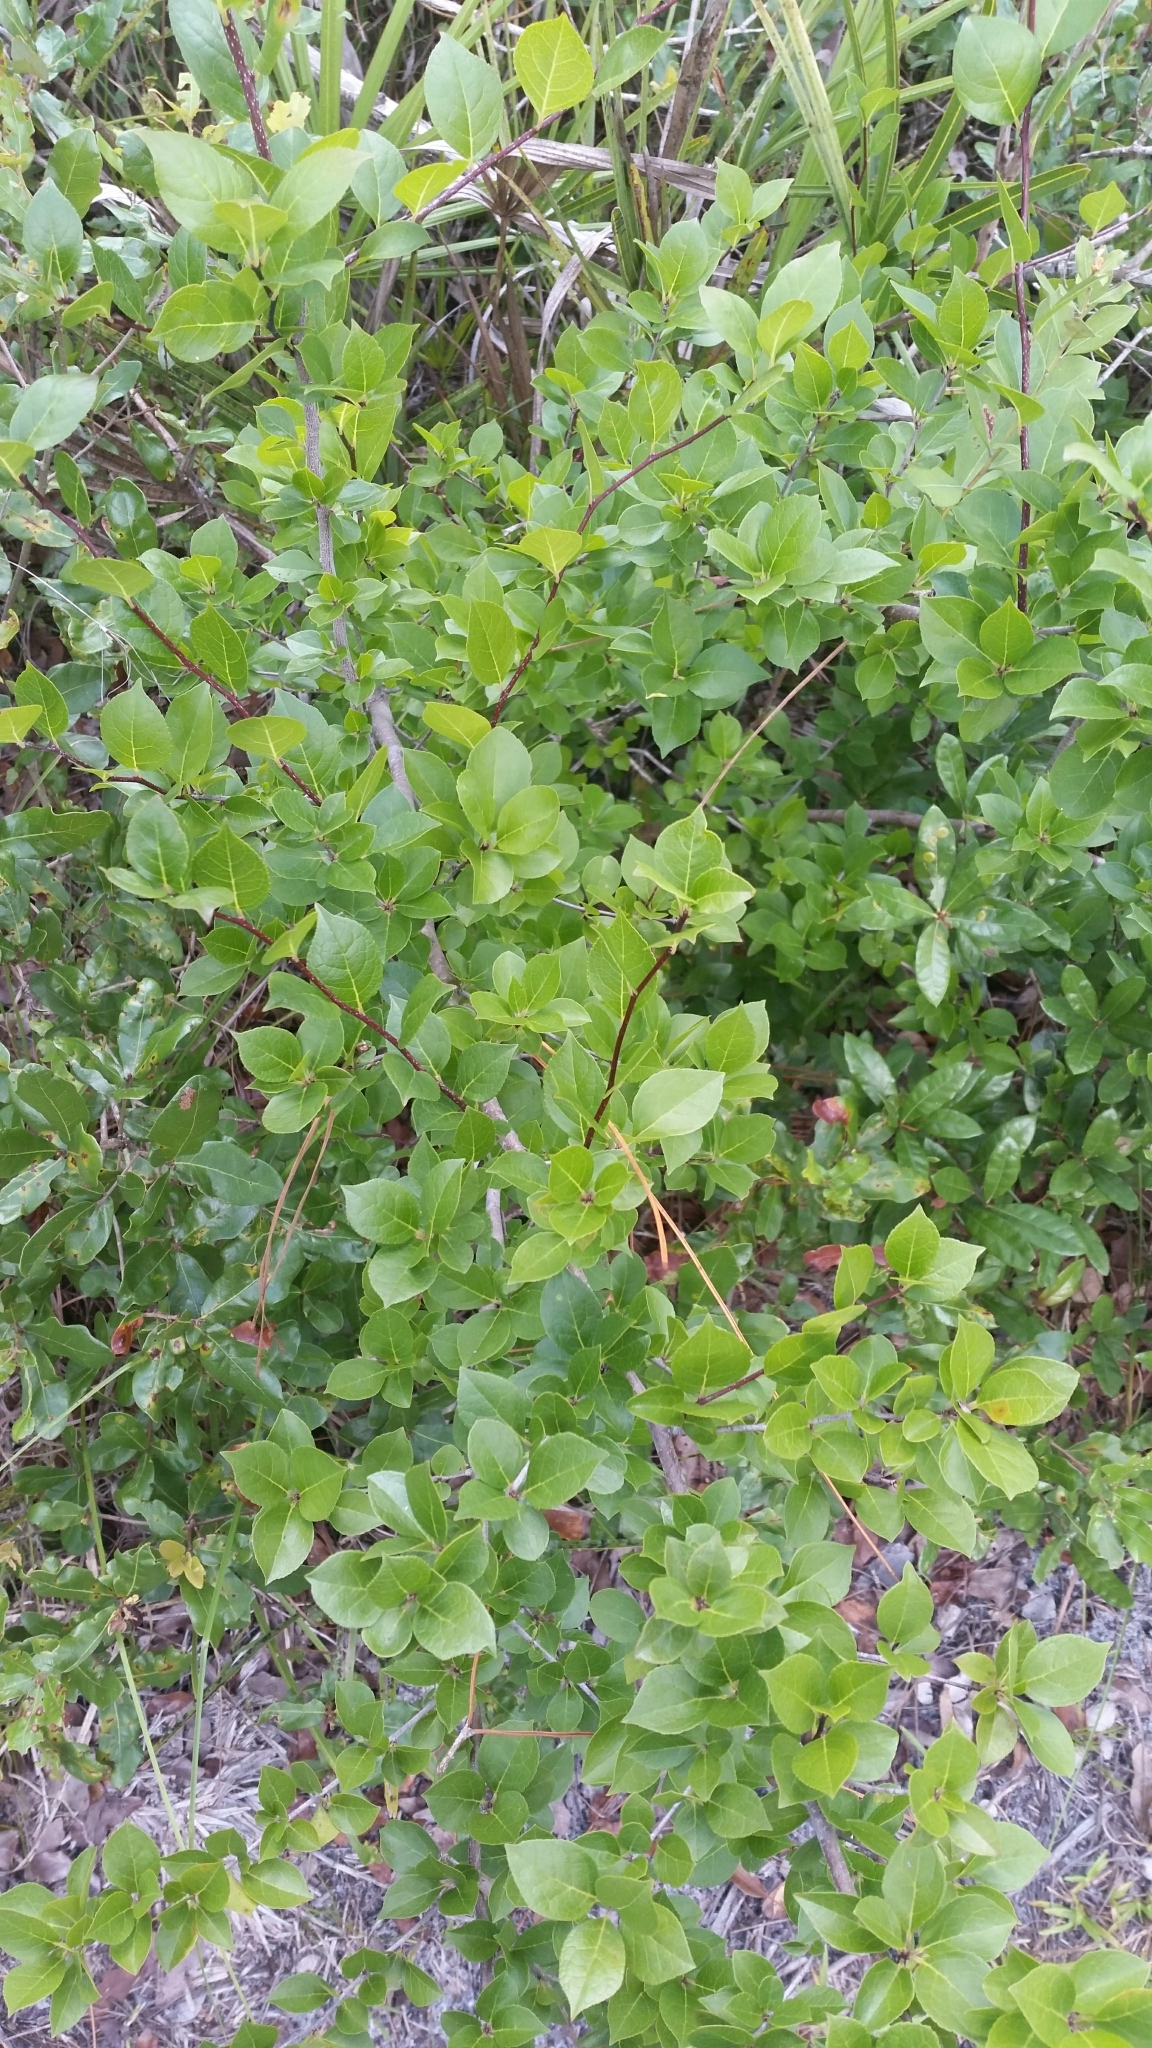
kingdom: Plantae
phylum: Tracheophyta
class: Magnoliopsida
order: Aquifoliales
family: Aquifoliaceae
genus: Ilex
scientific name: Ilex ambigua
